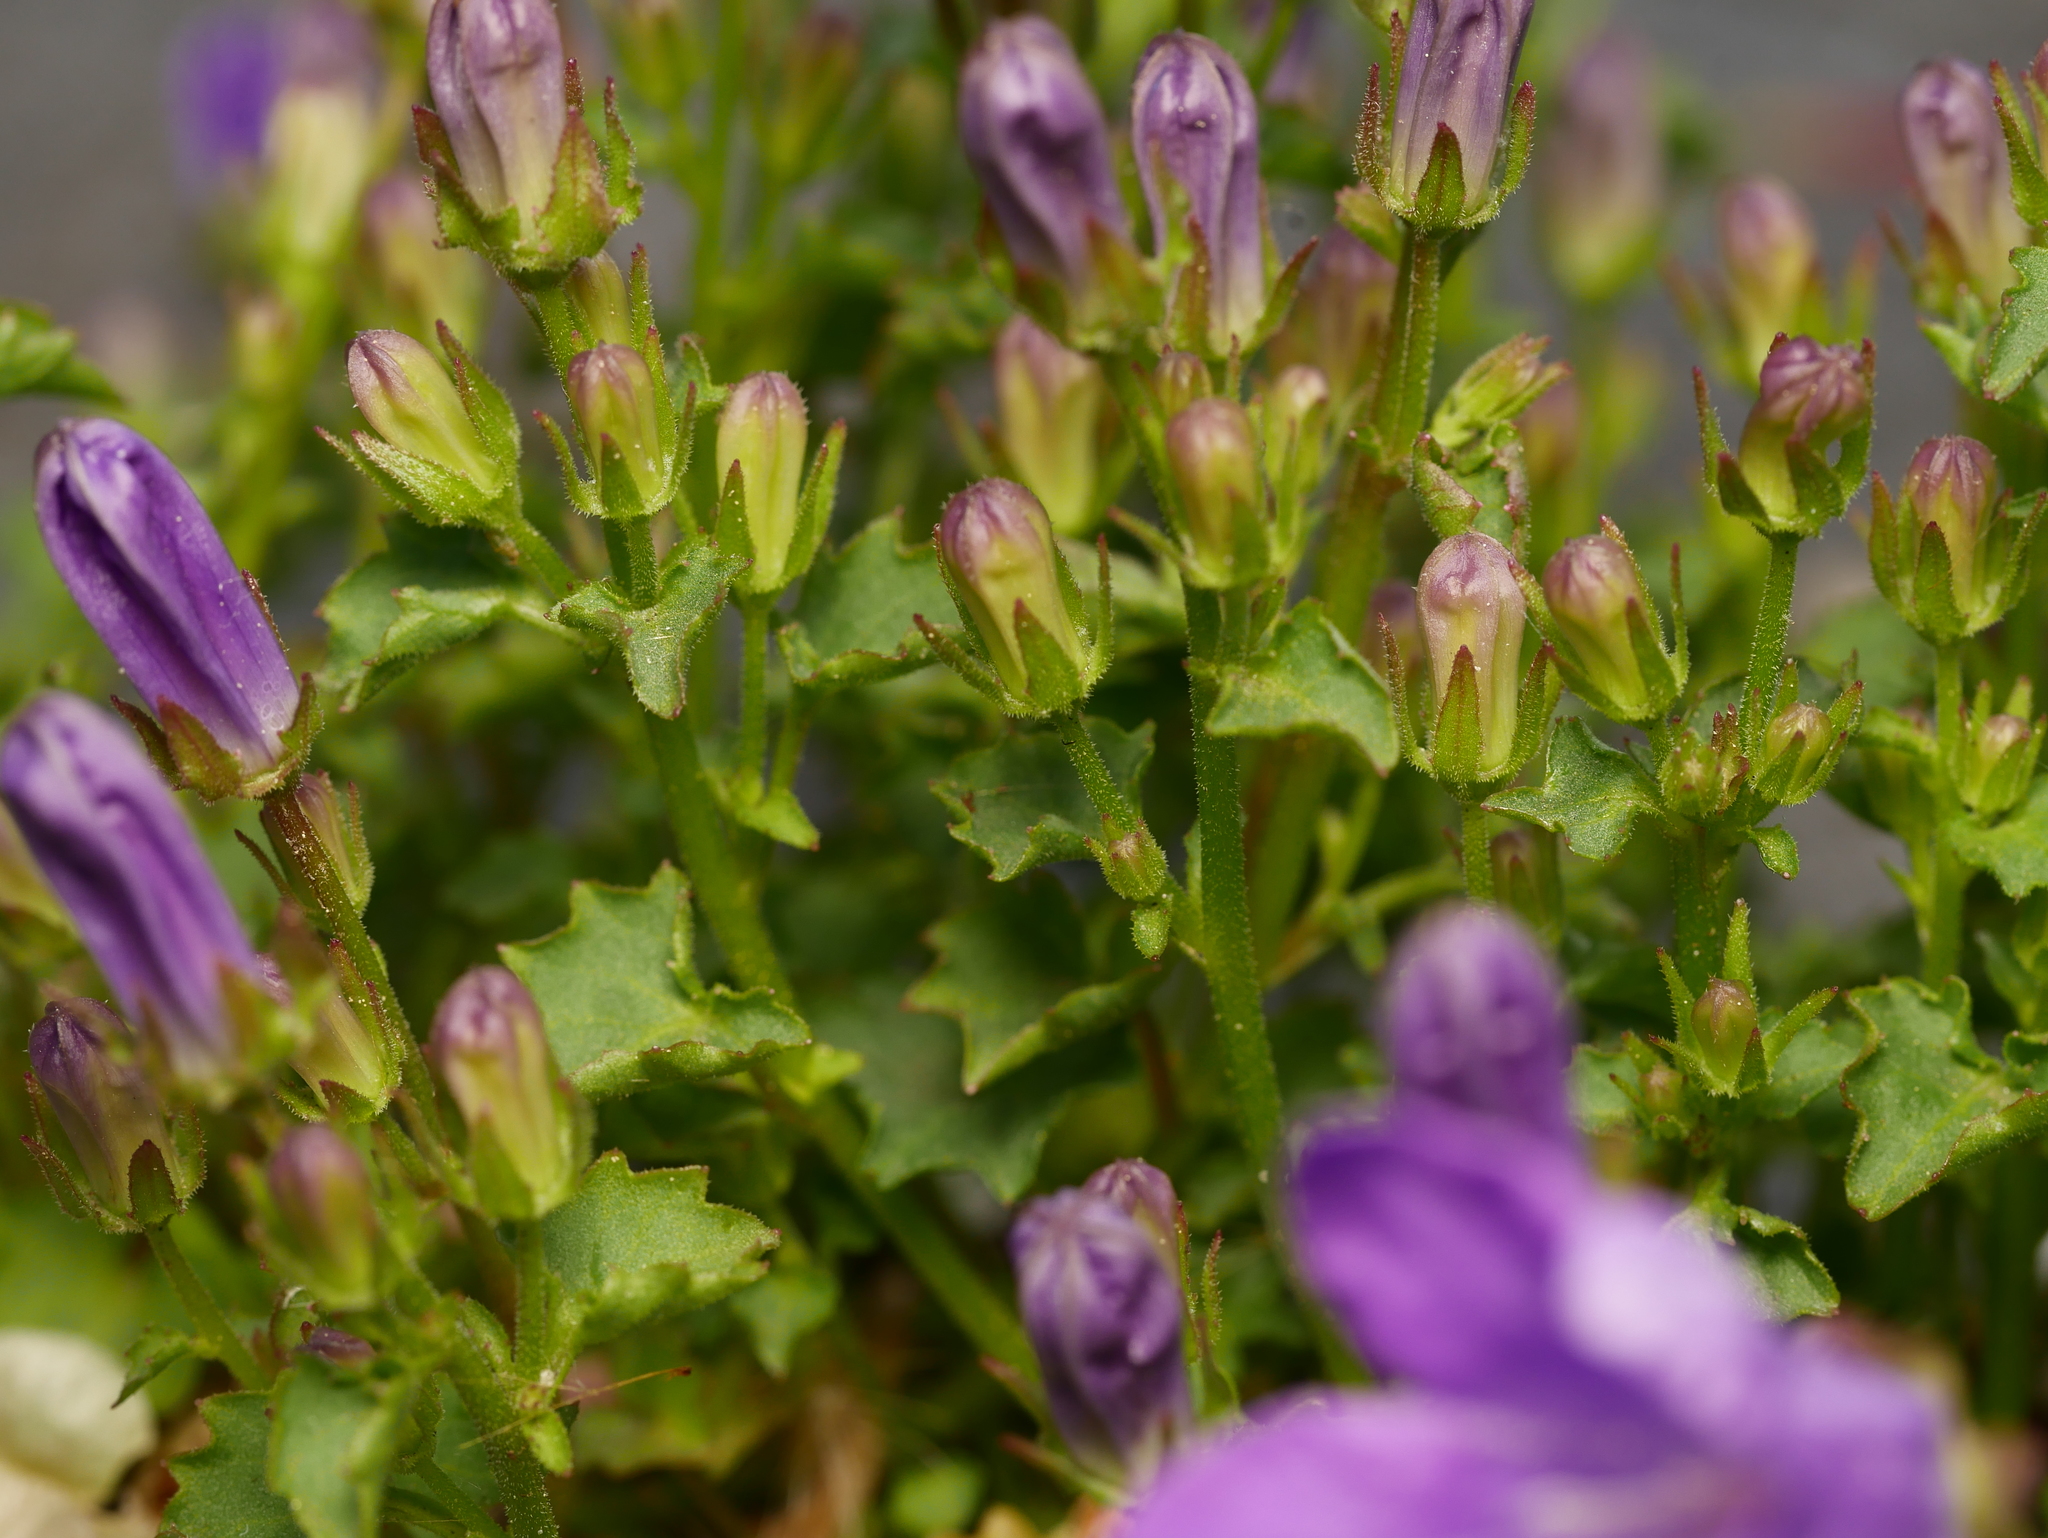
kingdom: Plantae
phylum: Tracheophyta
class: Magnoliopsida
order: Asterales
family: Campanulaceae
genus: Campanula
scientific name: Campanula poscharskyana
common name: Trailing bellflower
